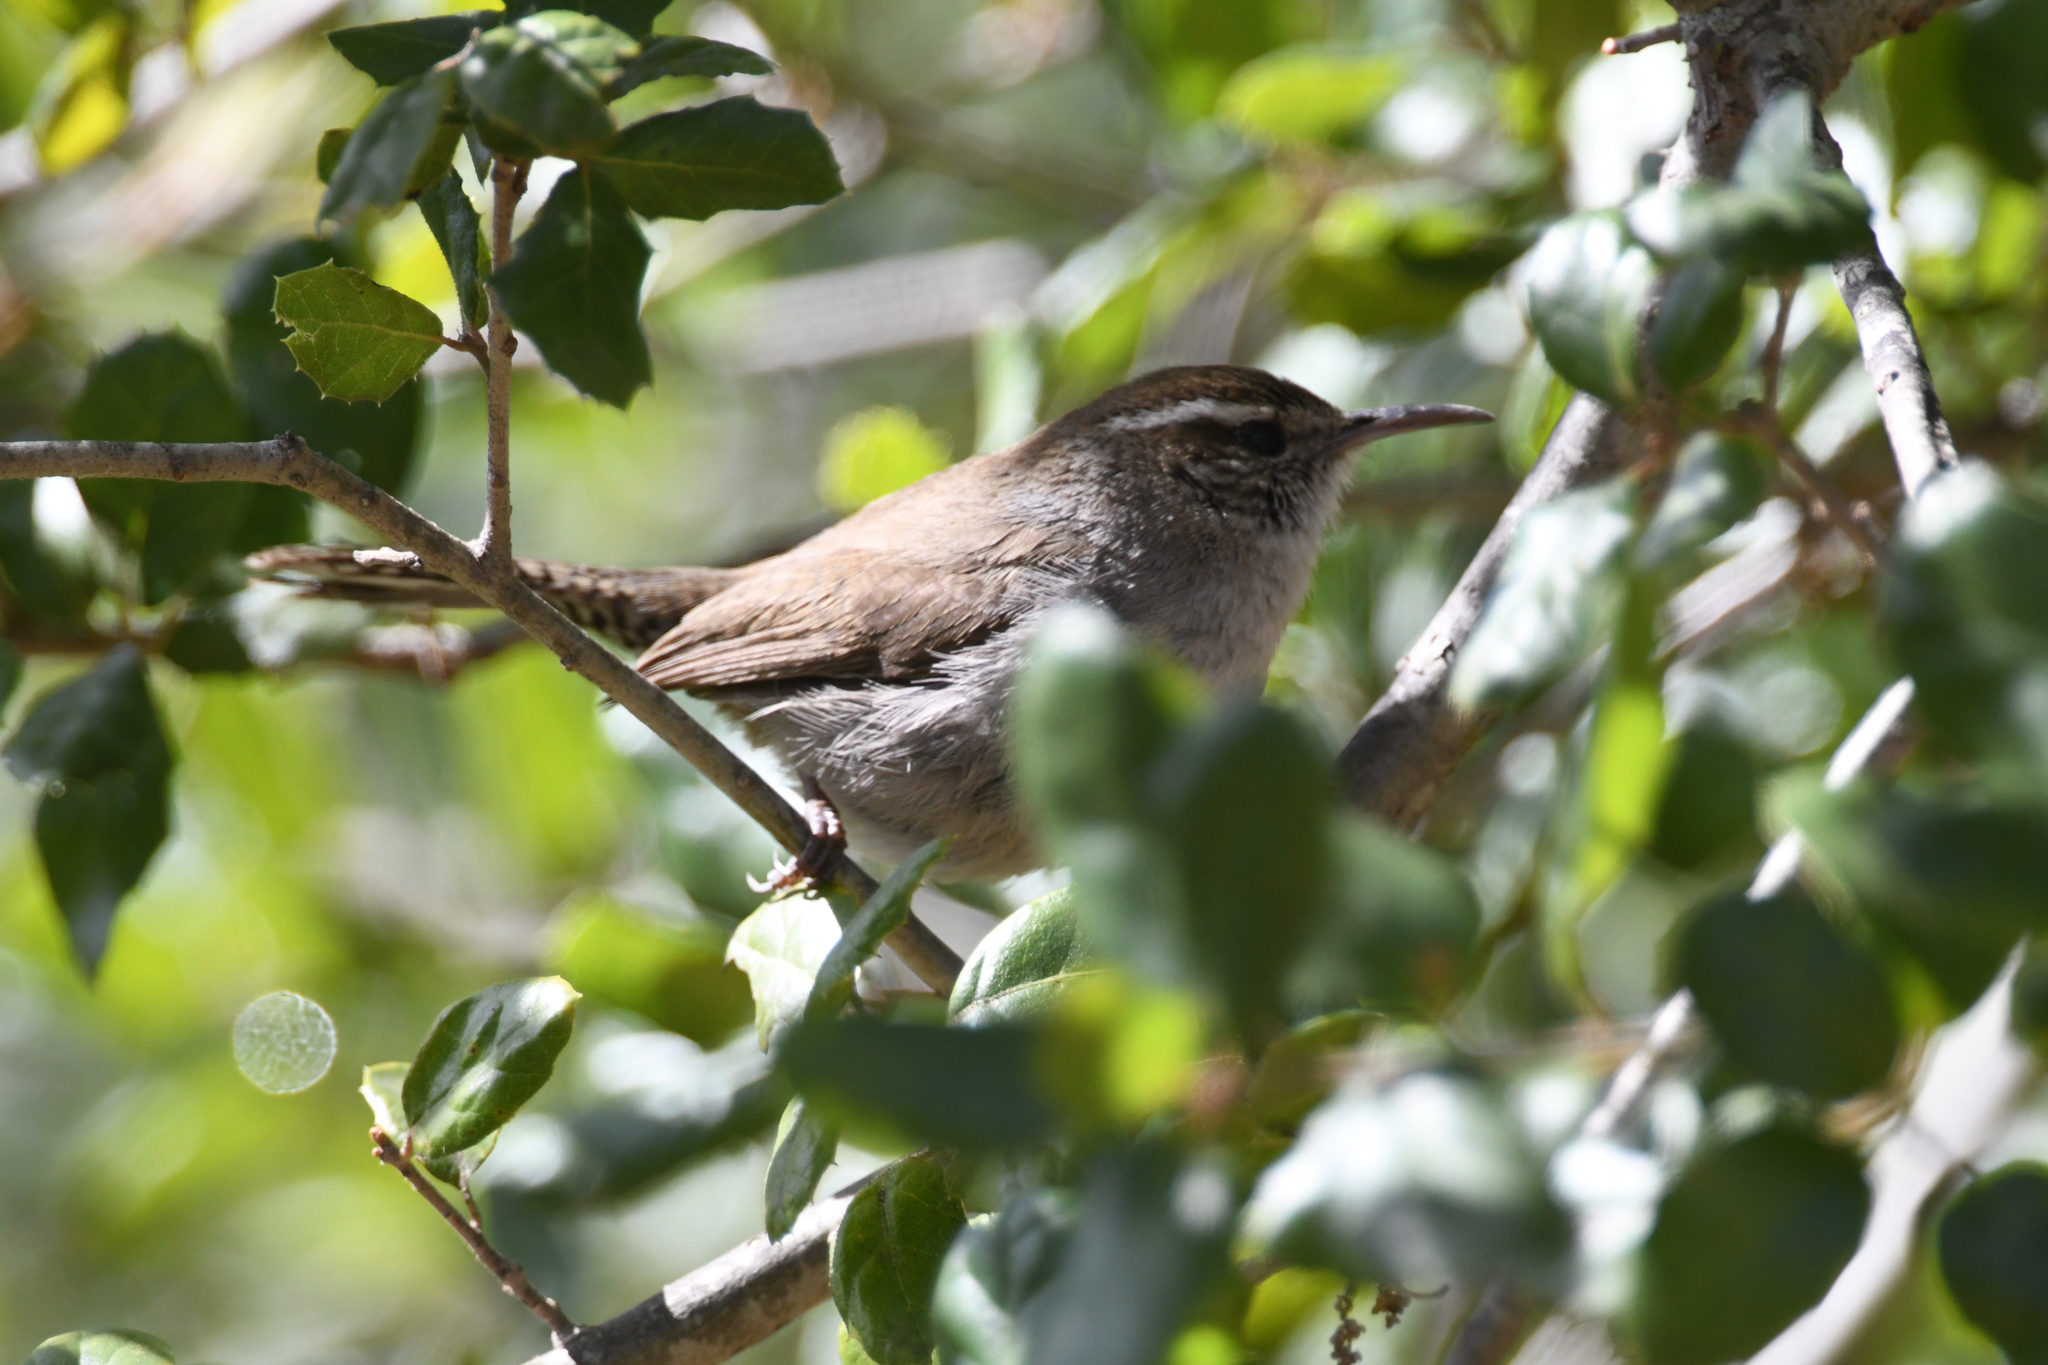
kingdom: Animalia
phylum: Chordata
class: Aves
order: Passeriformes
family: Troglodytidae
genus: Thryomanes
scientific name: Thryomanes bewickii
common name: Bewick's wren
